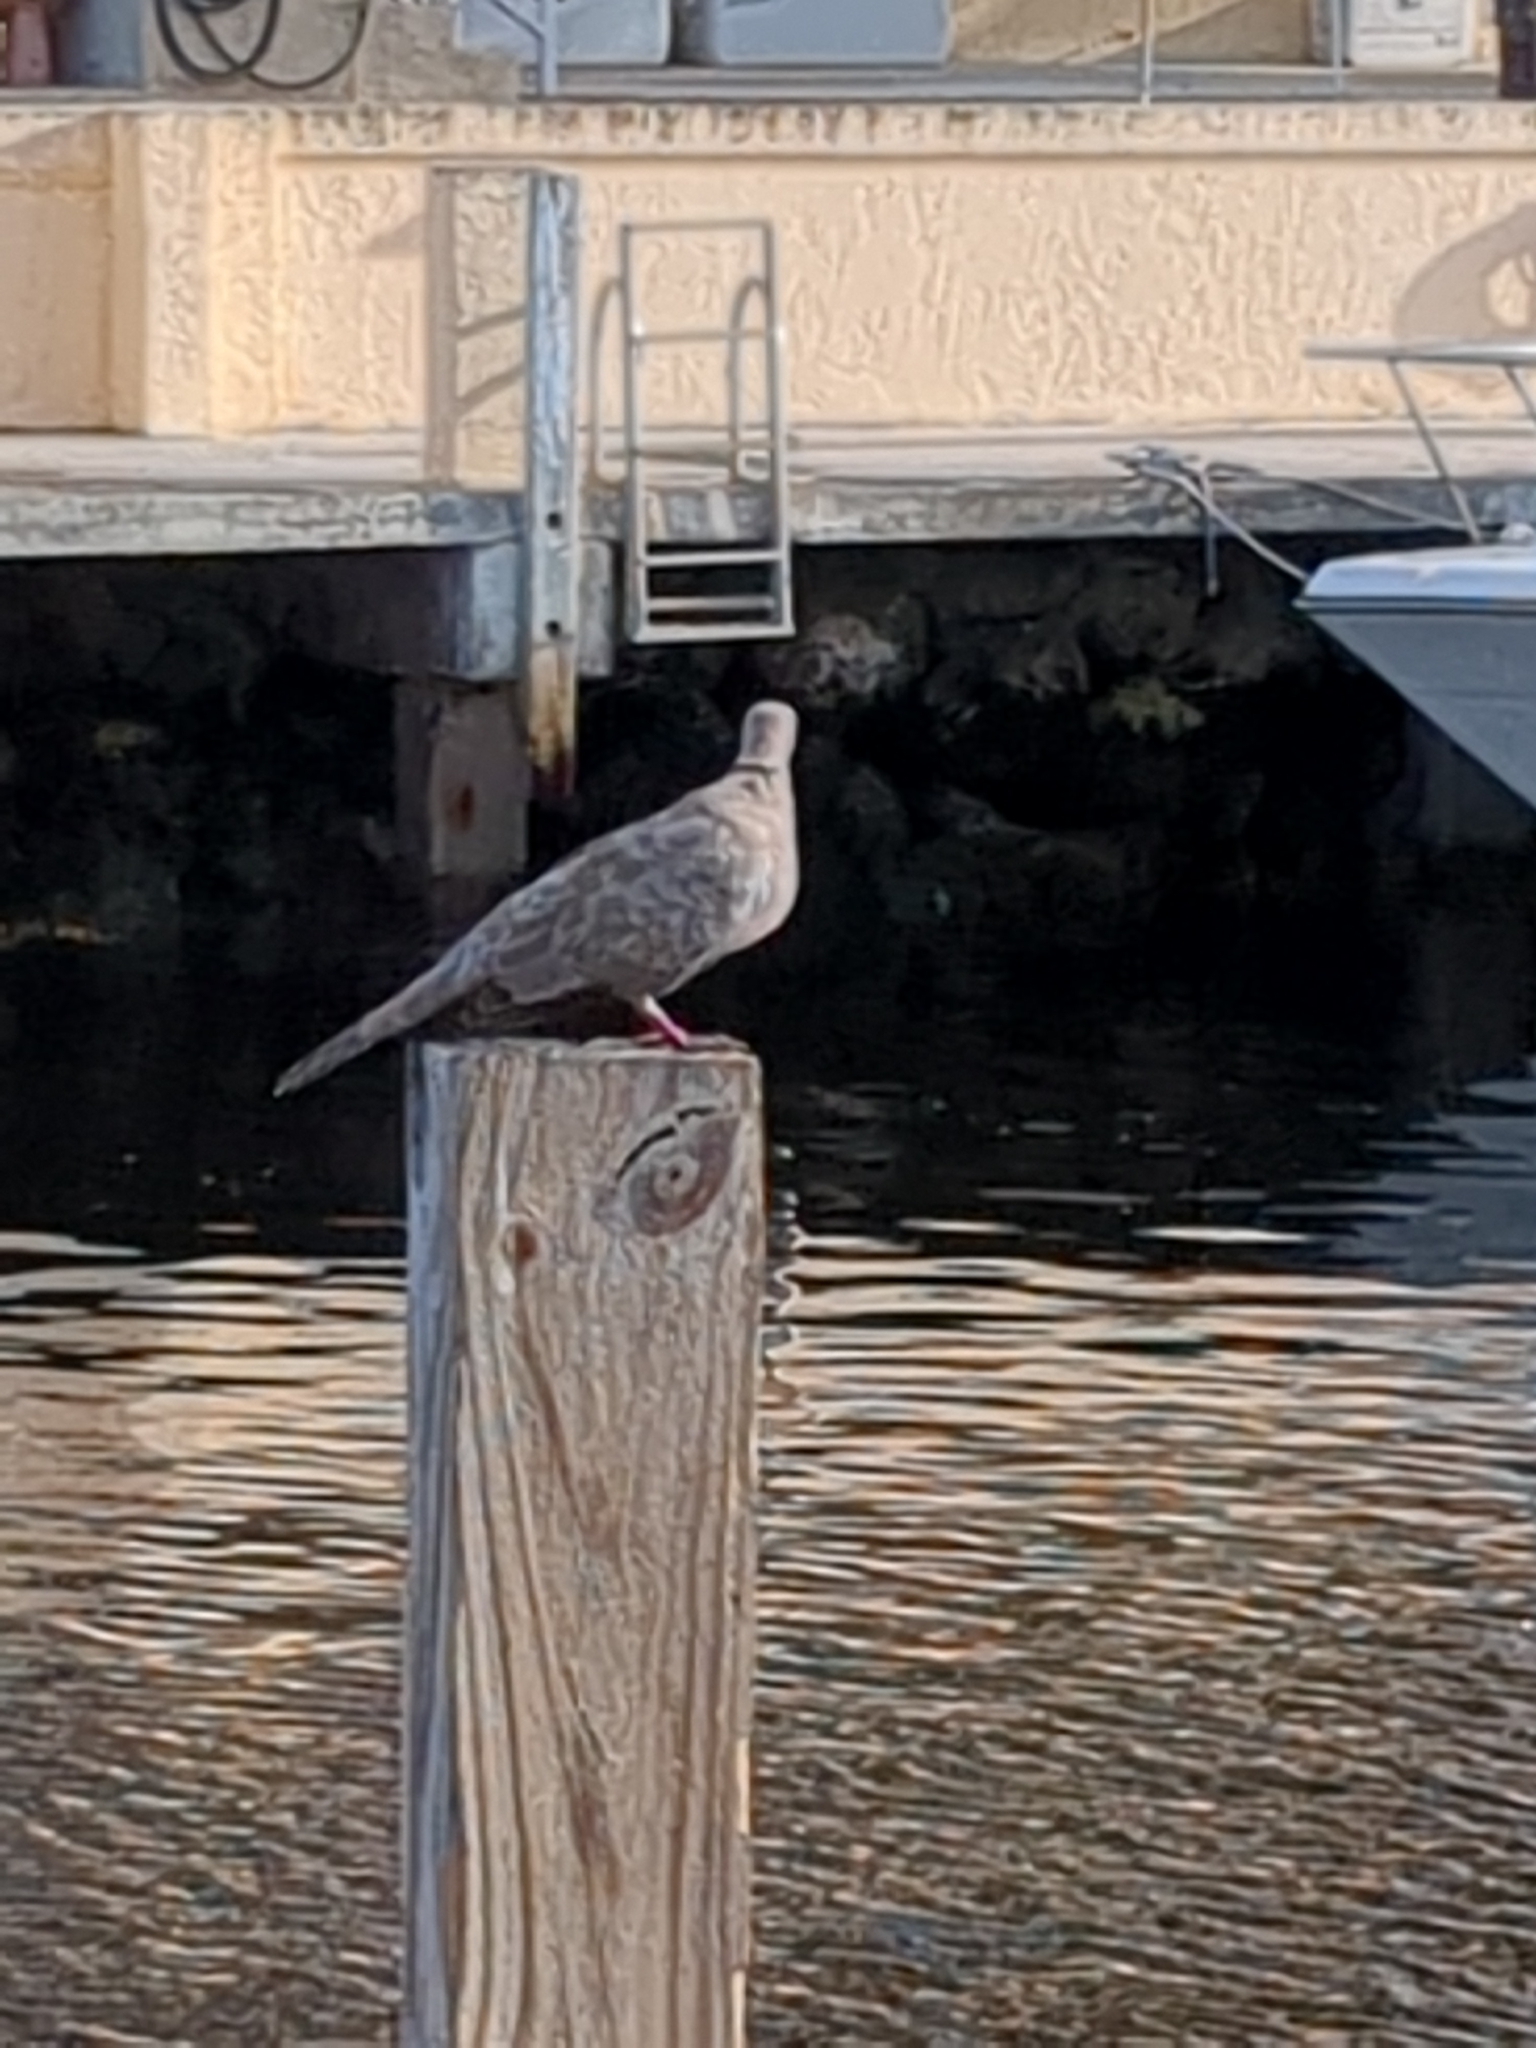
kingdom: Animalia
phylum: Chordata
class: Aves
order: Columbiformes
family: Columbidae
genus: Streptopelia
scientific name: Streptopelia decaocto
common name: Eurasian collared dove
